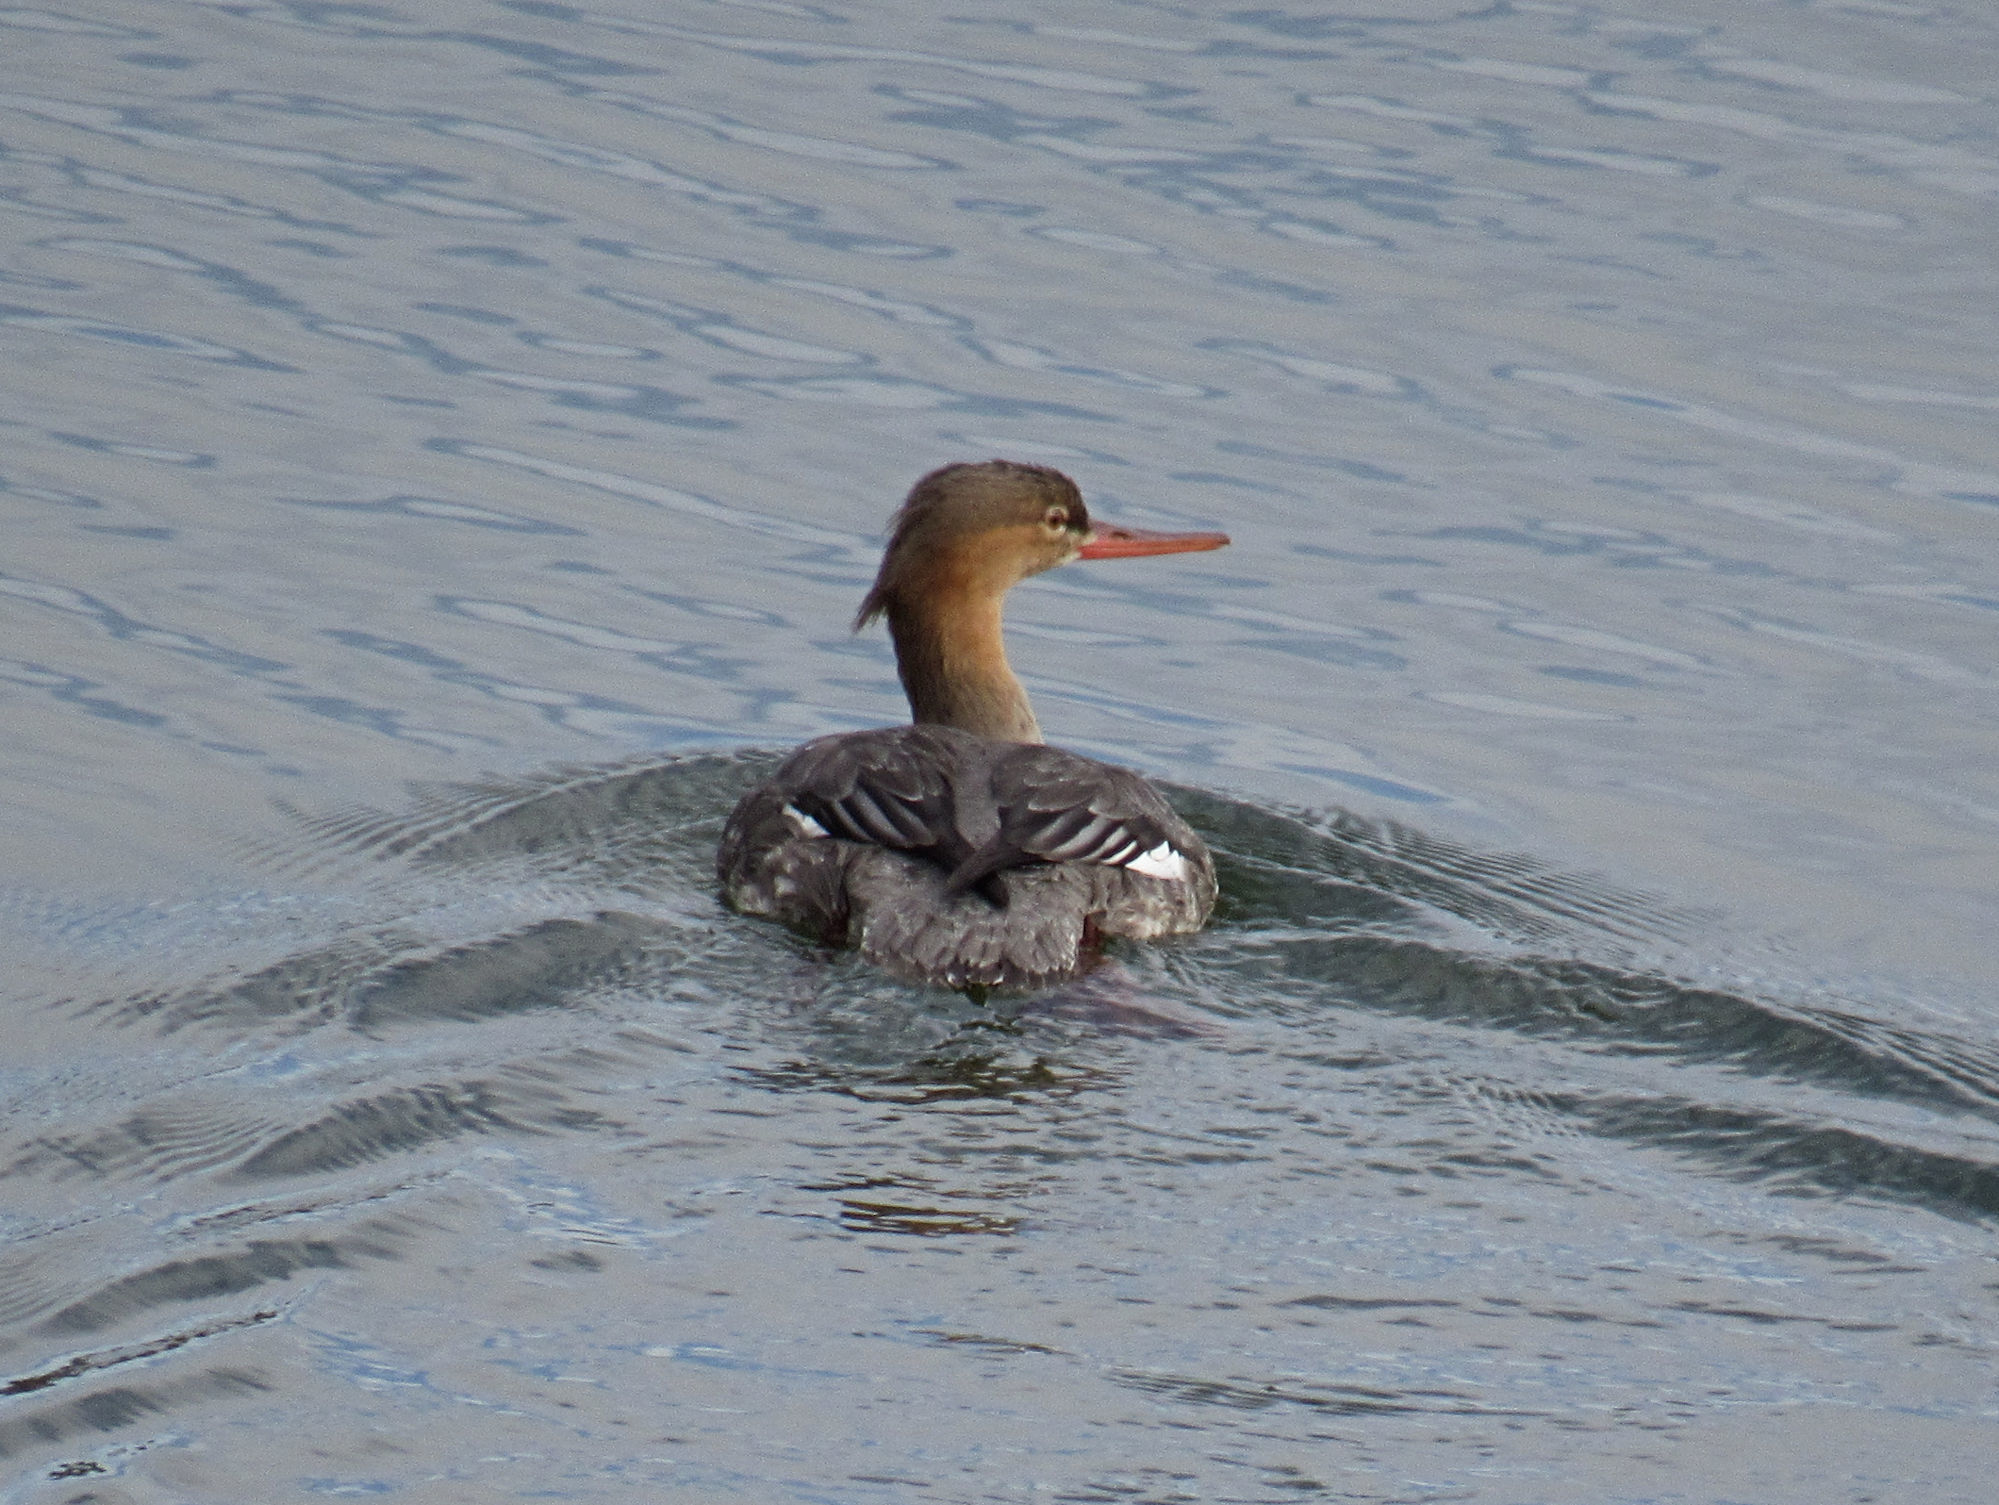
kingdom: Animalia
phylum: Chordata
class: Aves
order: Anseriformes
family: Anatidae
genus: Mergus
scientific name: Mergus serrator
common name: Red-breasted merganser
